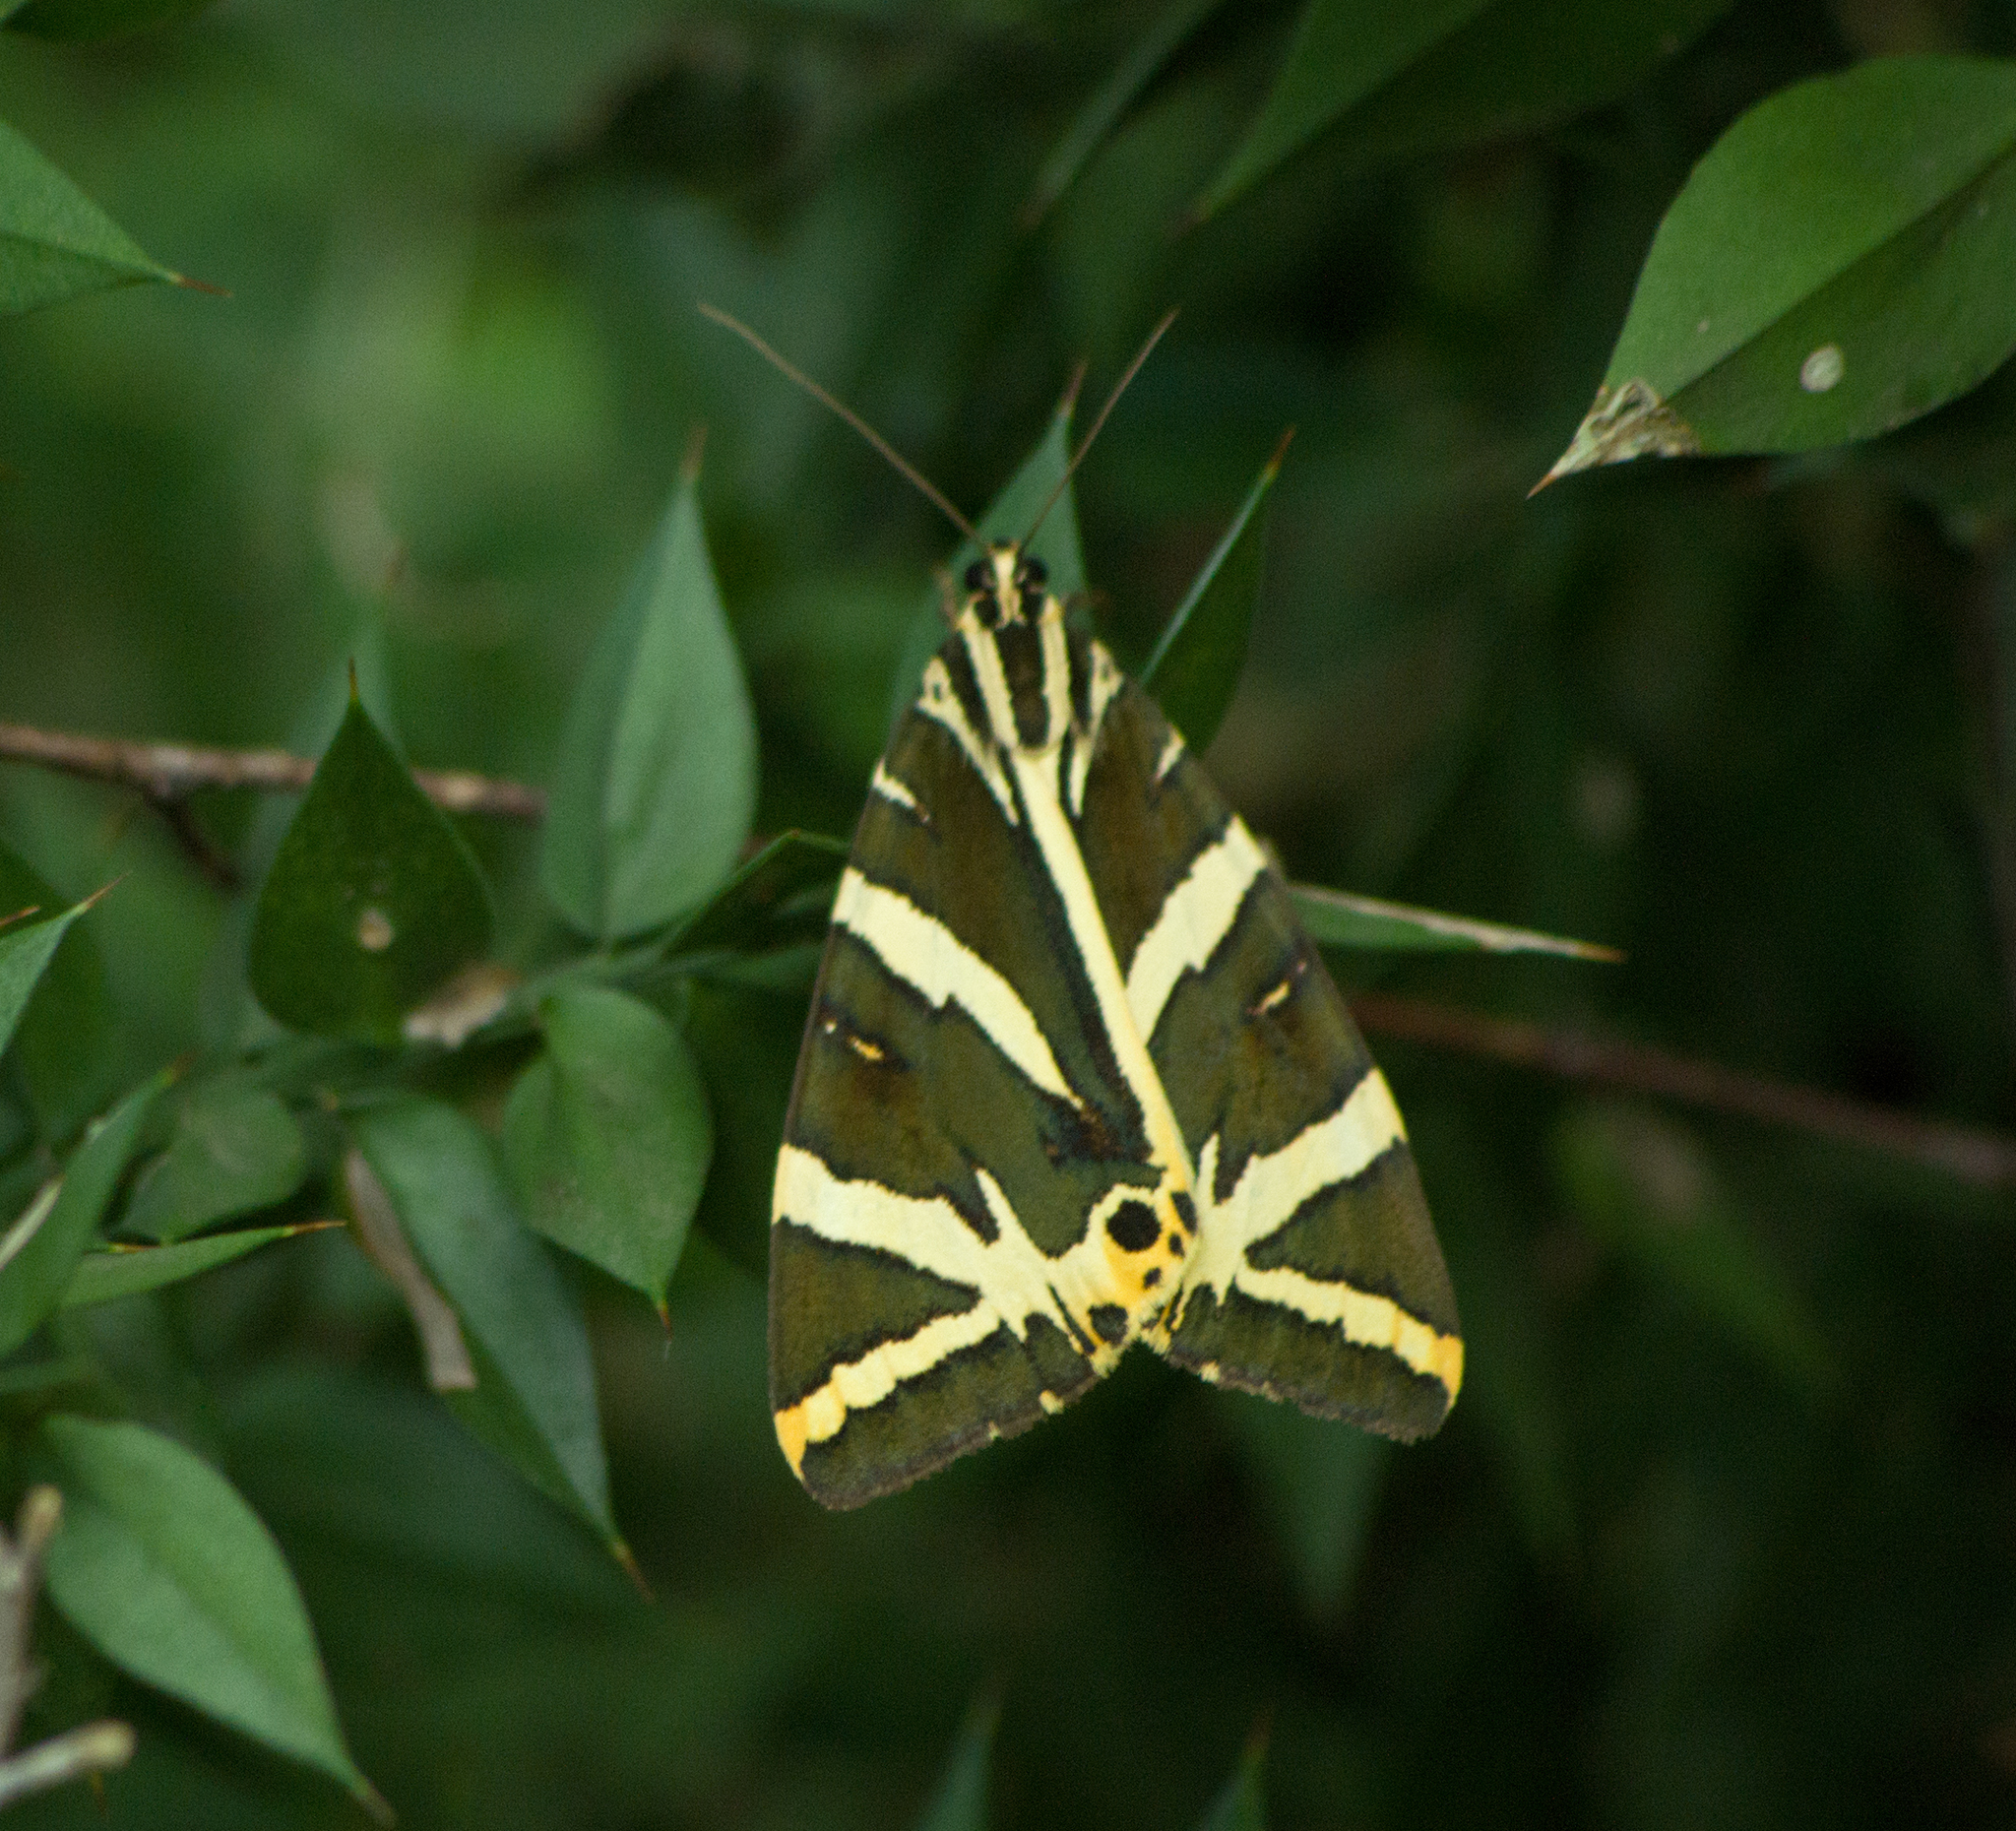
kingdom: Animalia
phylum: Arthropoda
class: Insecta
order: Lepidoptera
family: Erebidae
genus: Euplagia
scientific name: Euplagia quadripunctaria
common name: Jersey tiger
